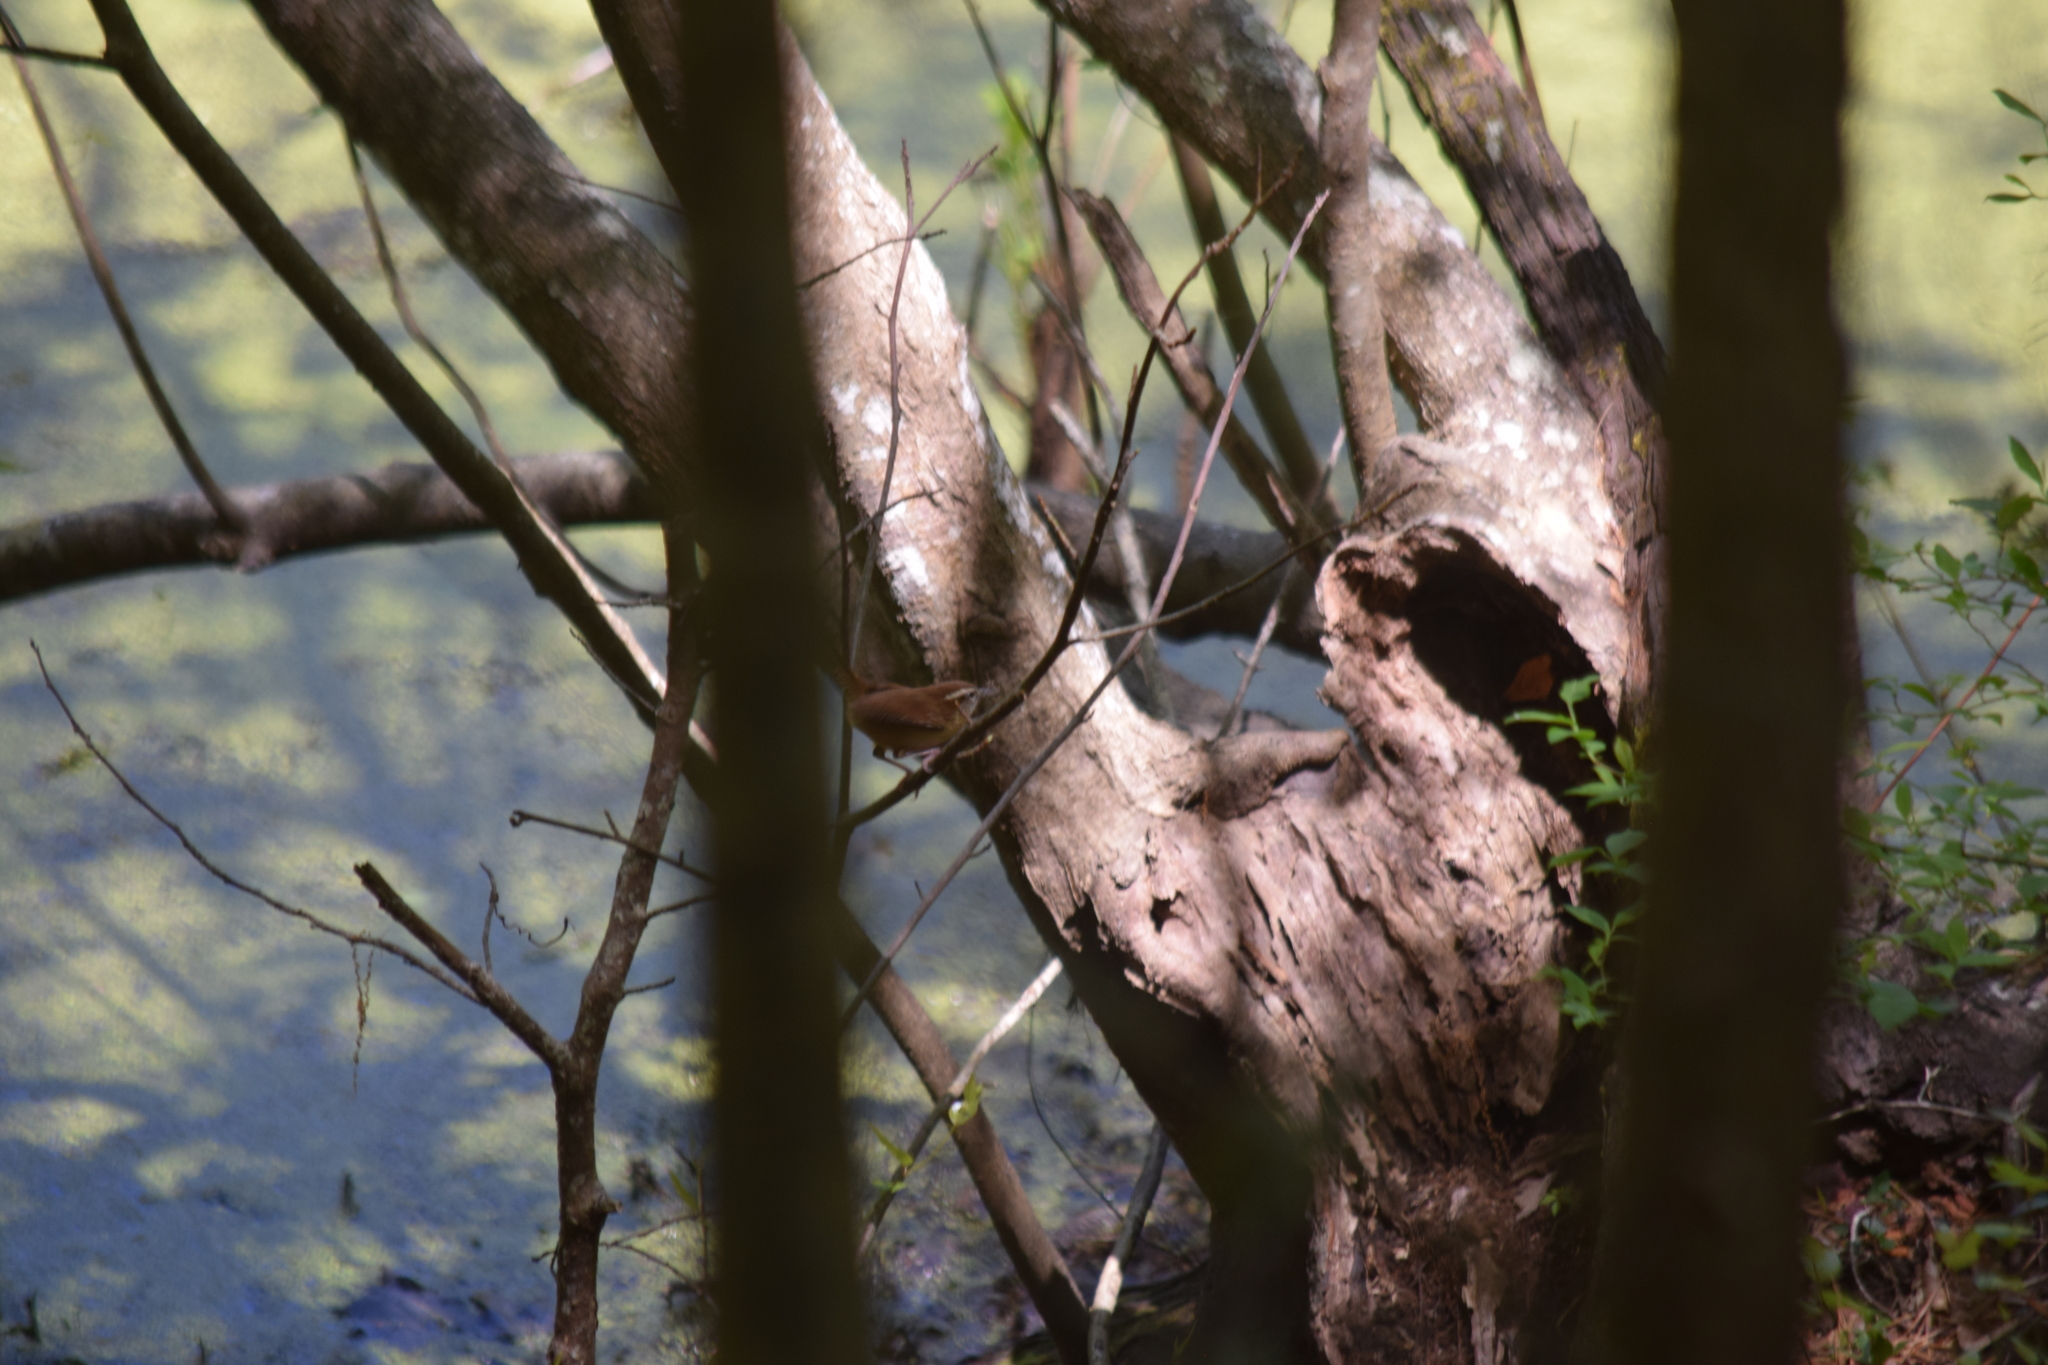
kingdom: Animalia
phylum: Chordata
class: Aves
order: Passeriformes
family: Troglodytidae
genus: Thryothorus
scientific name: Thryothorus ludovicianus
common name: Carolina wren
